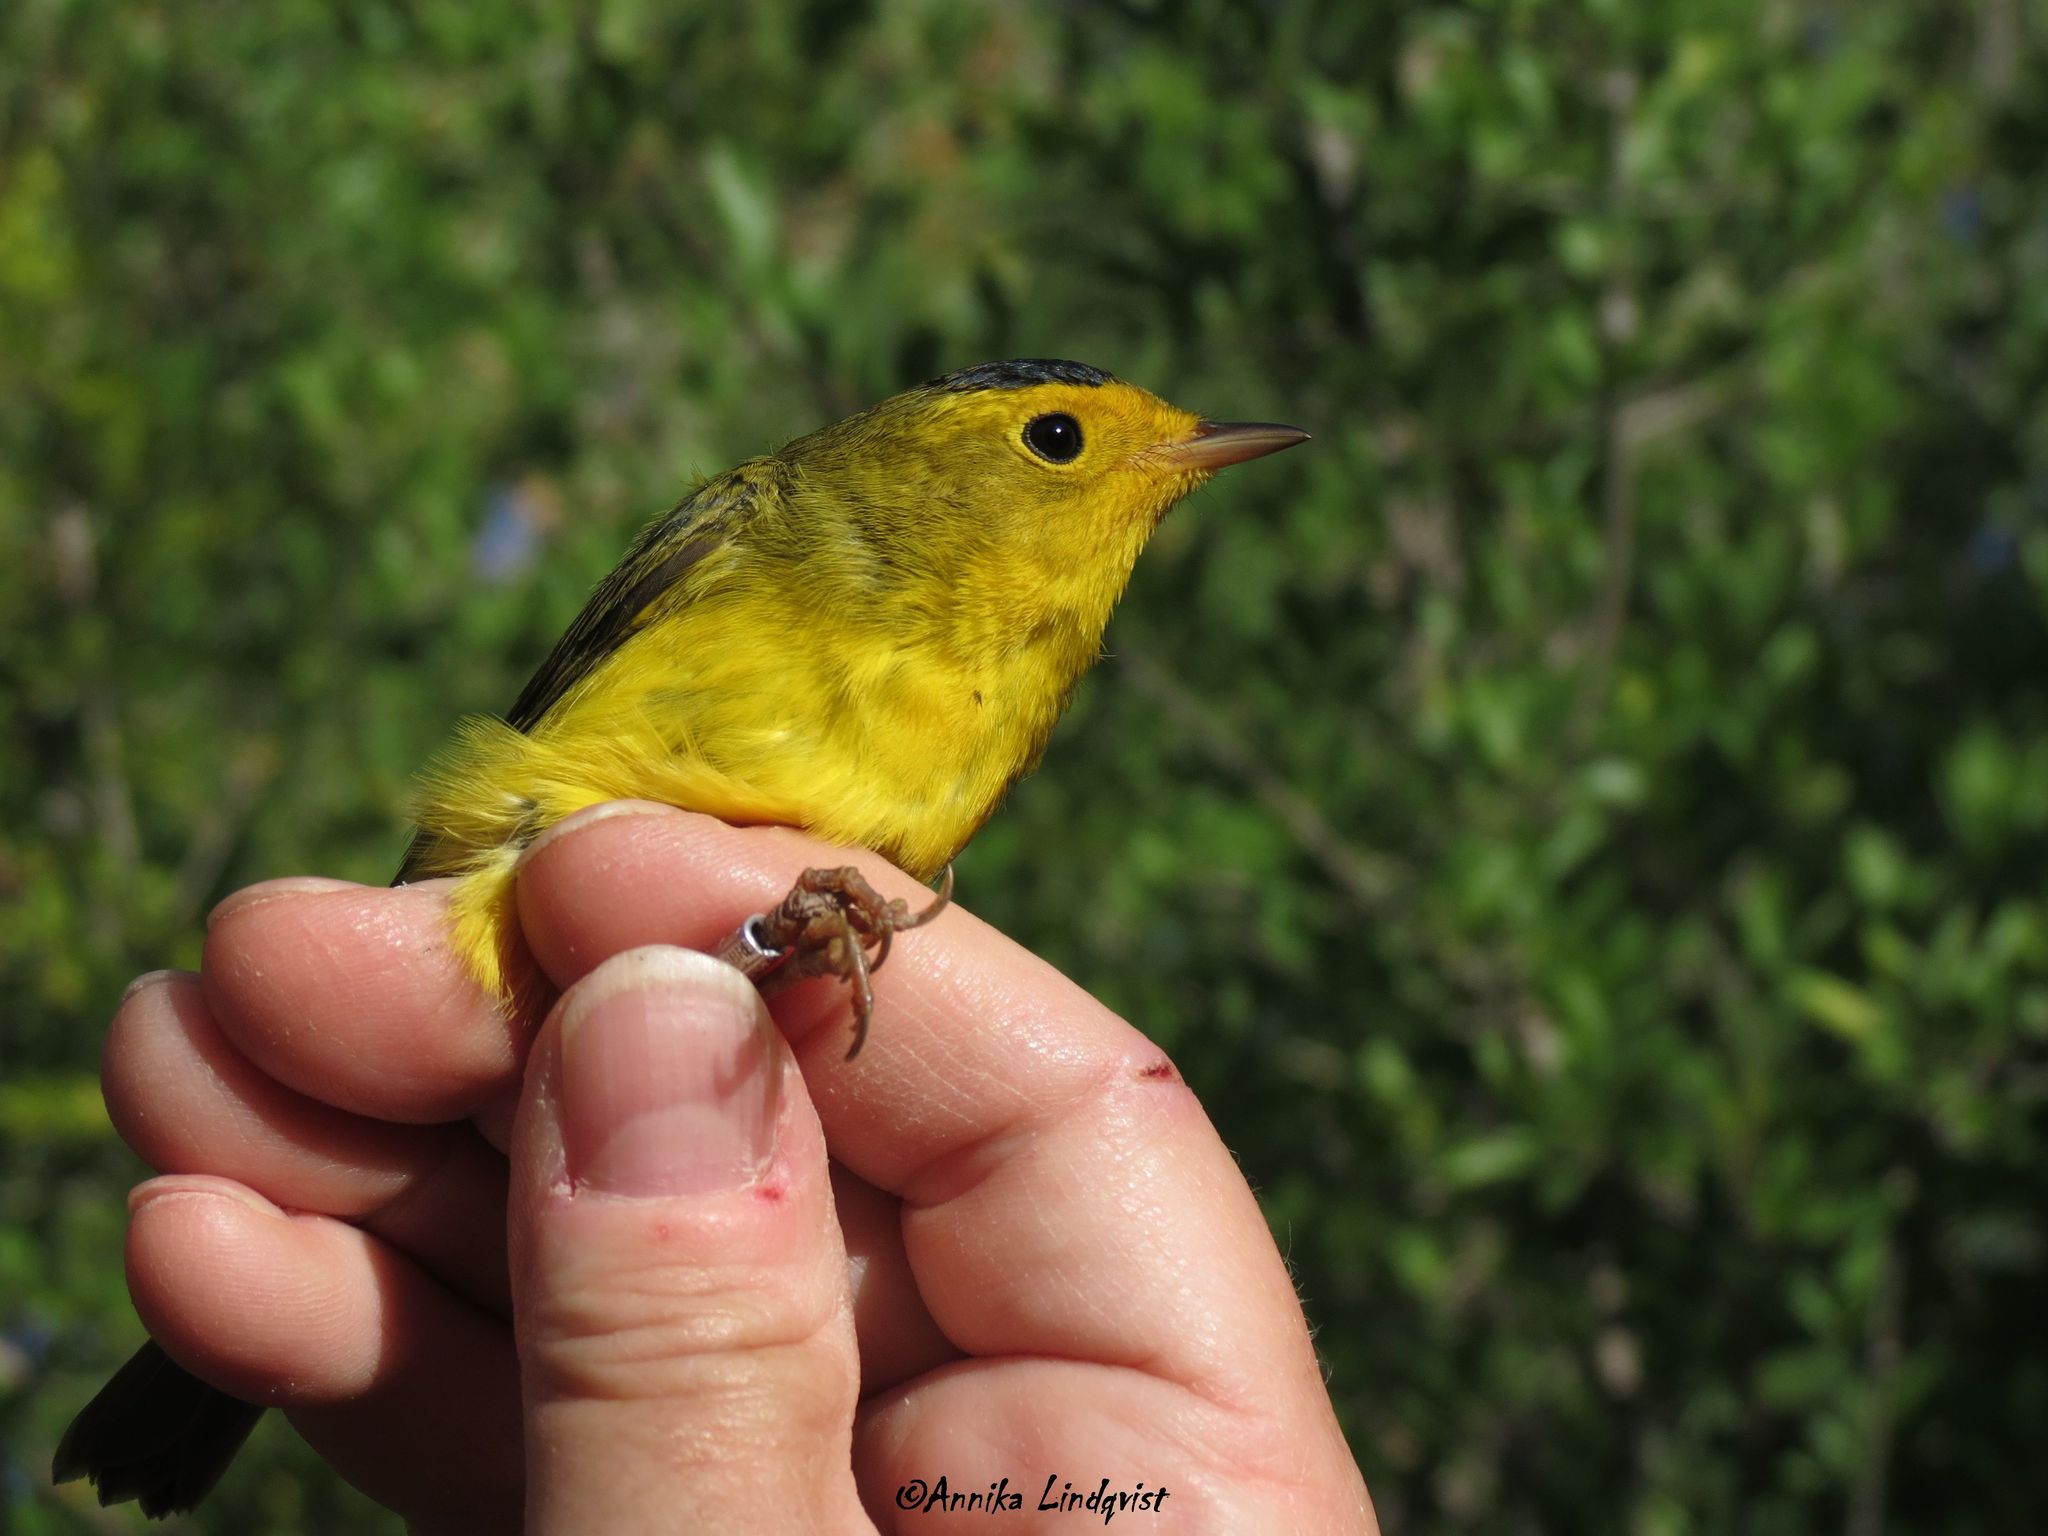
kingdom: Animalia
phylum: Chordata
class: Aves
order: Passeriformes
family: Parulidae
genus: Cardellina
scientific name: Cardellina pusilla
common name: Wilson's warbler
